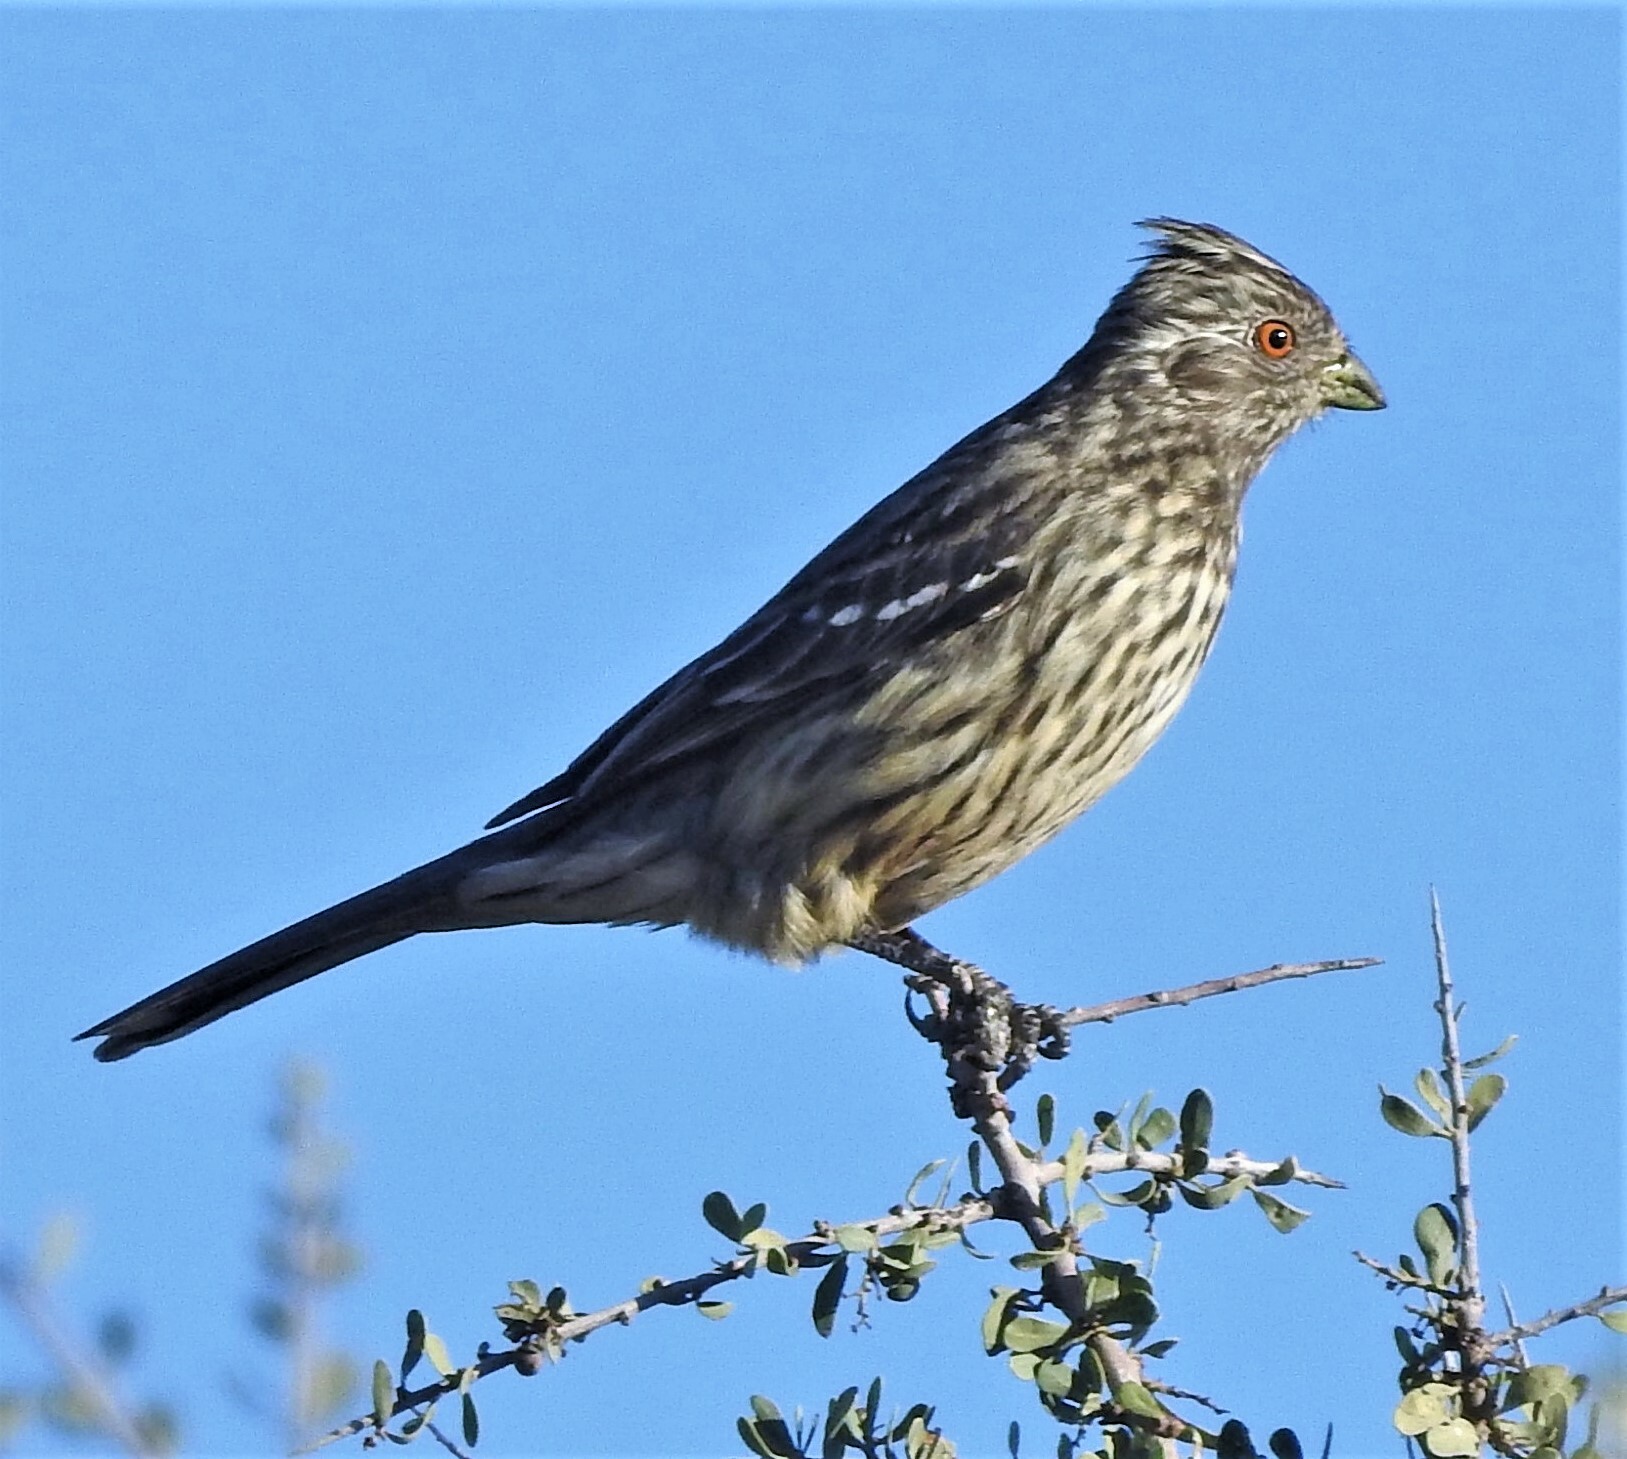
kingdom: Animalia
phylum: Chordata
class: Aves
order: Passeriformes
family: Cotingidae
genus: Phytotoma
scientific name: Phytotoma rutila
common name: White-tipped plantcutter
